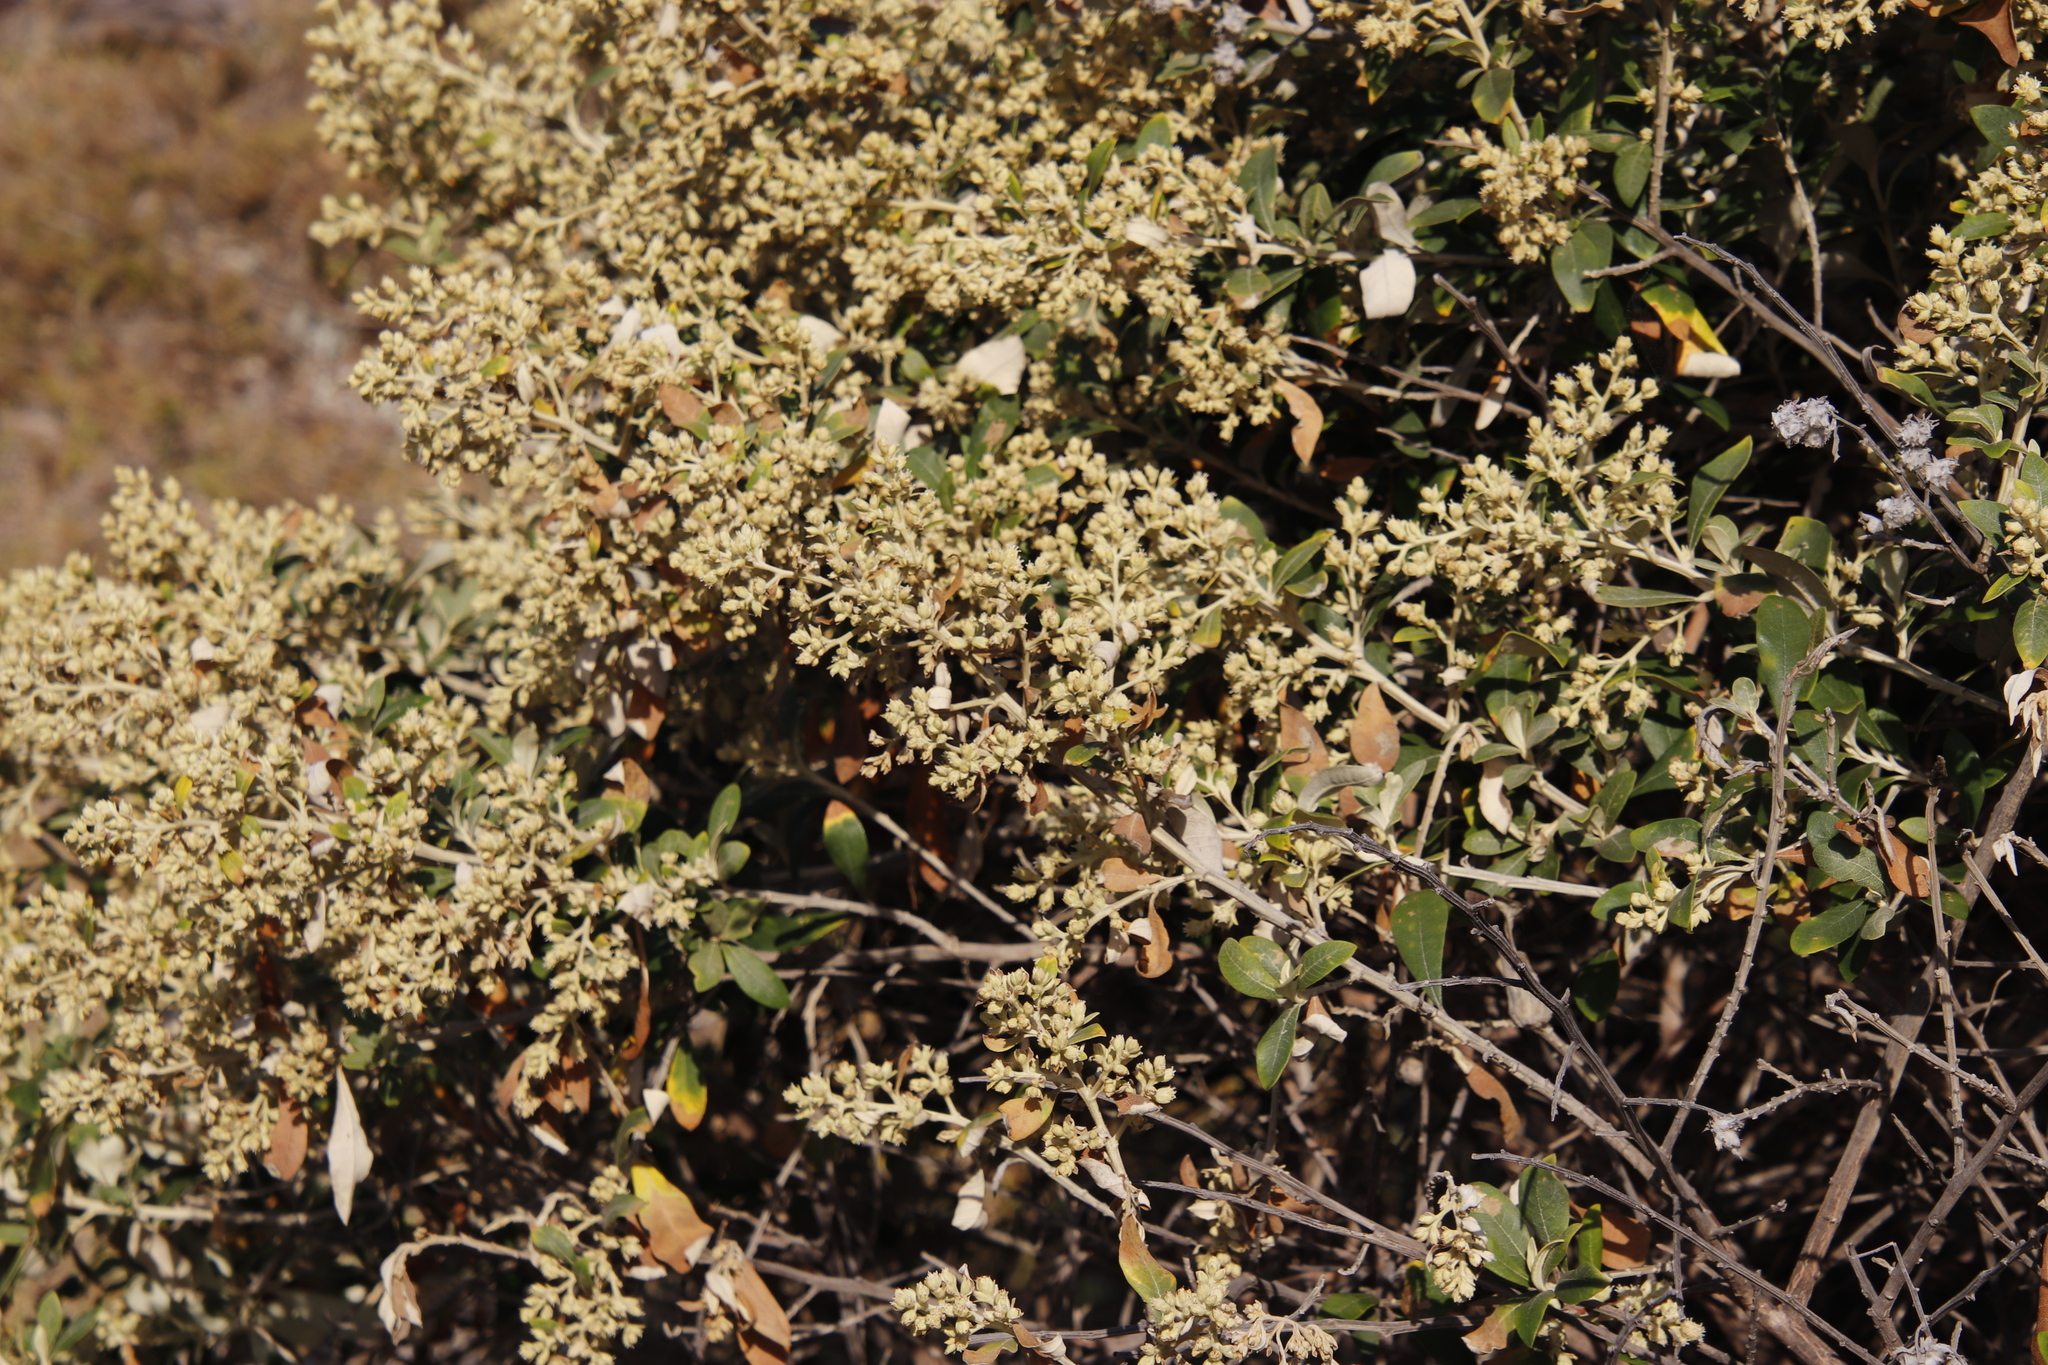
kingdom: Plantae
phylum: Tracheophyta
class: Magnoliopsida
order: Asterales
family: Asteraceae
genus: Tarchonanthus
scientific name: Tarchonanthus littoralis
